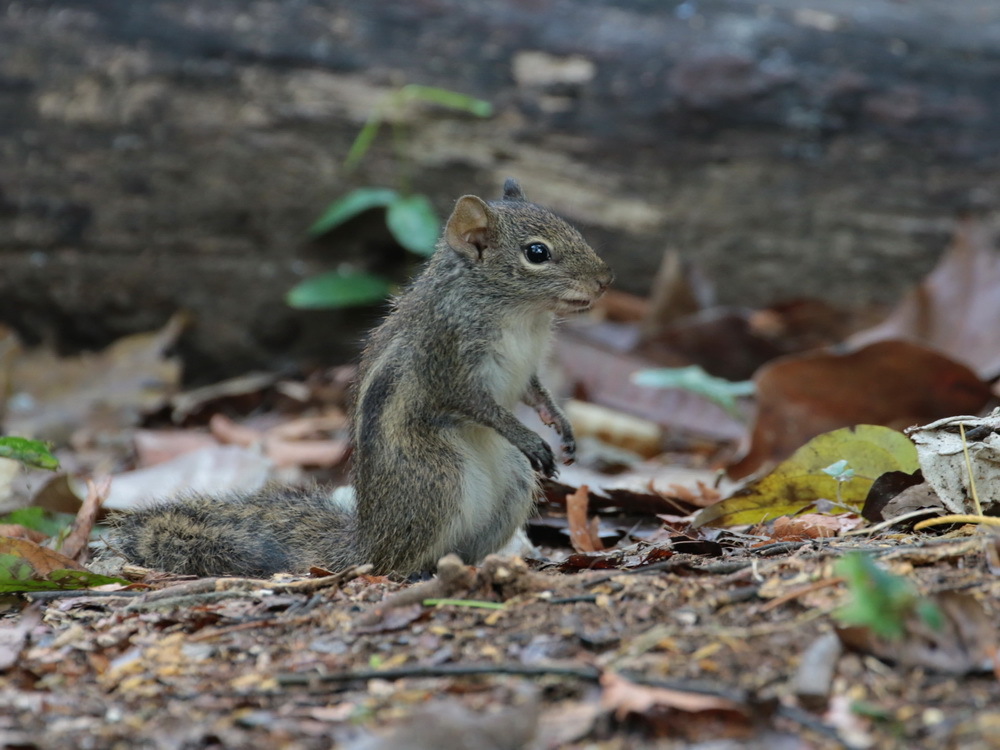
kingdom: Animalia
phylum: Chordata
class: Mammalia
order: Rodentia
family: Sciuridae
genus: Menetes
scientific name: Menetes berdmorei
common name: Indochinese ground squirrel
